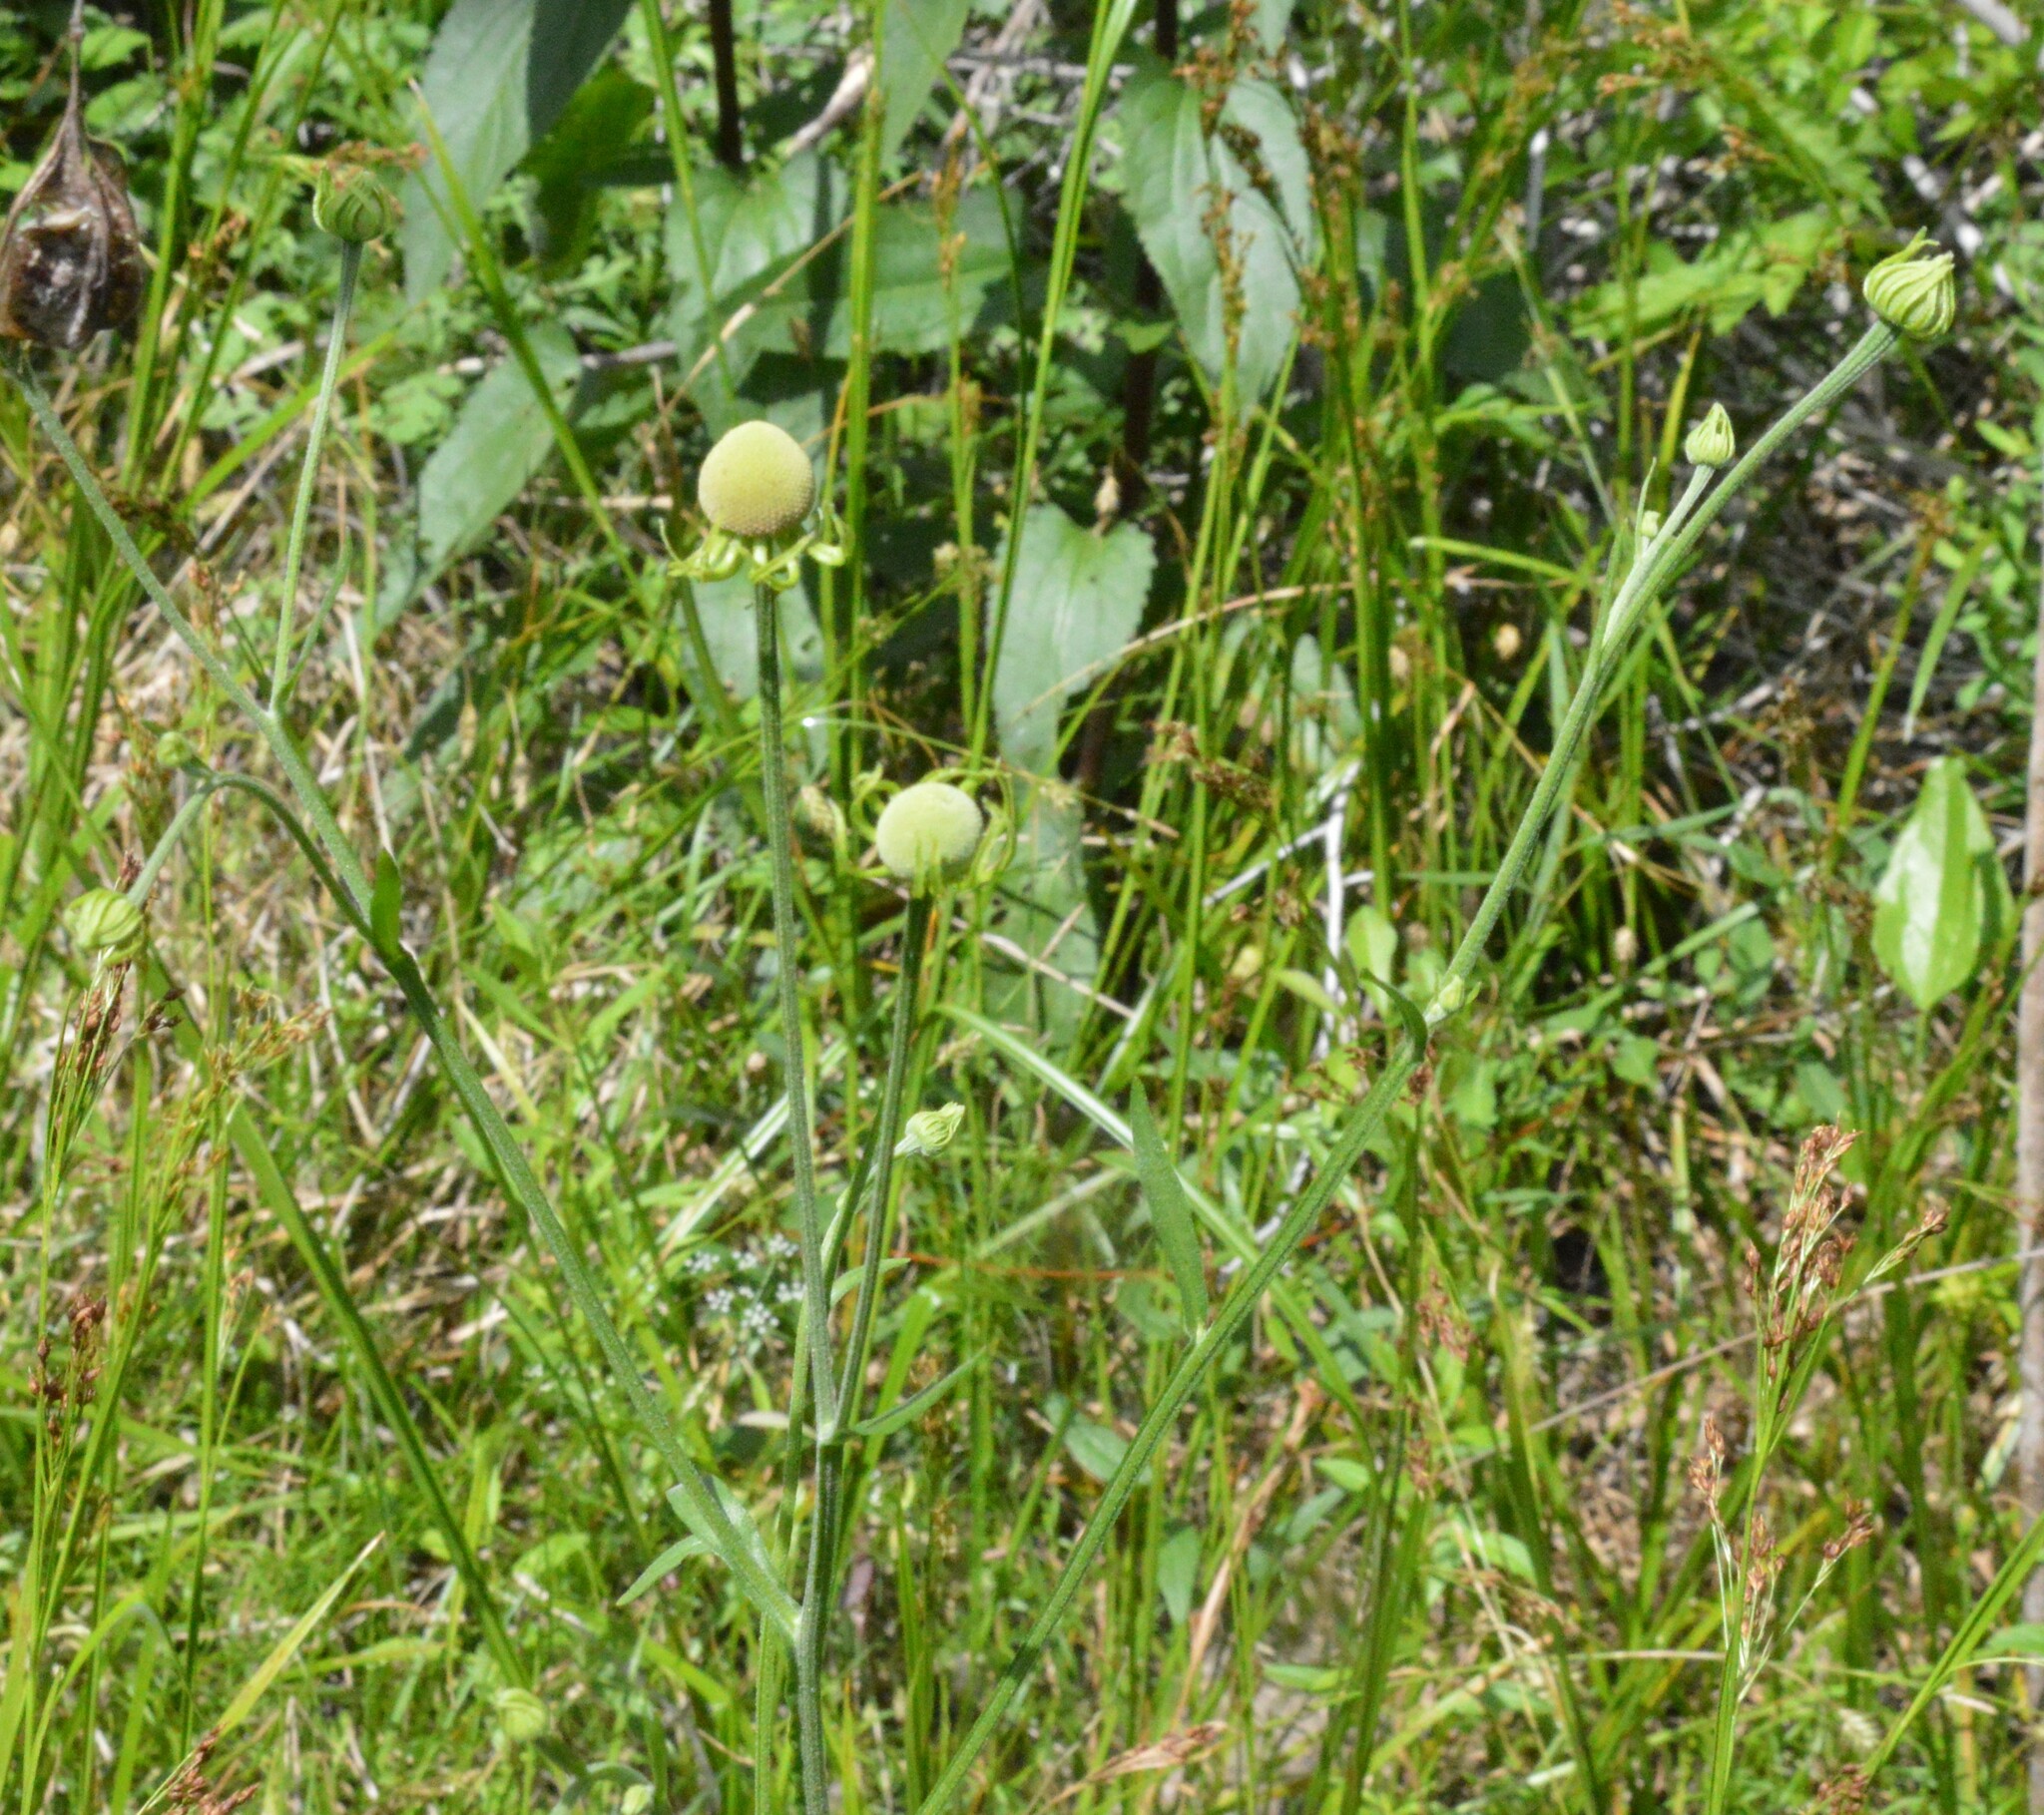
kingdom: Plantae
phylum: Tracheophyta
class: Magnoliopsida
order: Asterales
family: Asteraceae
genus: Helenium
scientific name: Helenium flexuosum
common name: Naked-flowered sneezeweed
